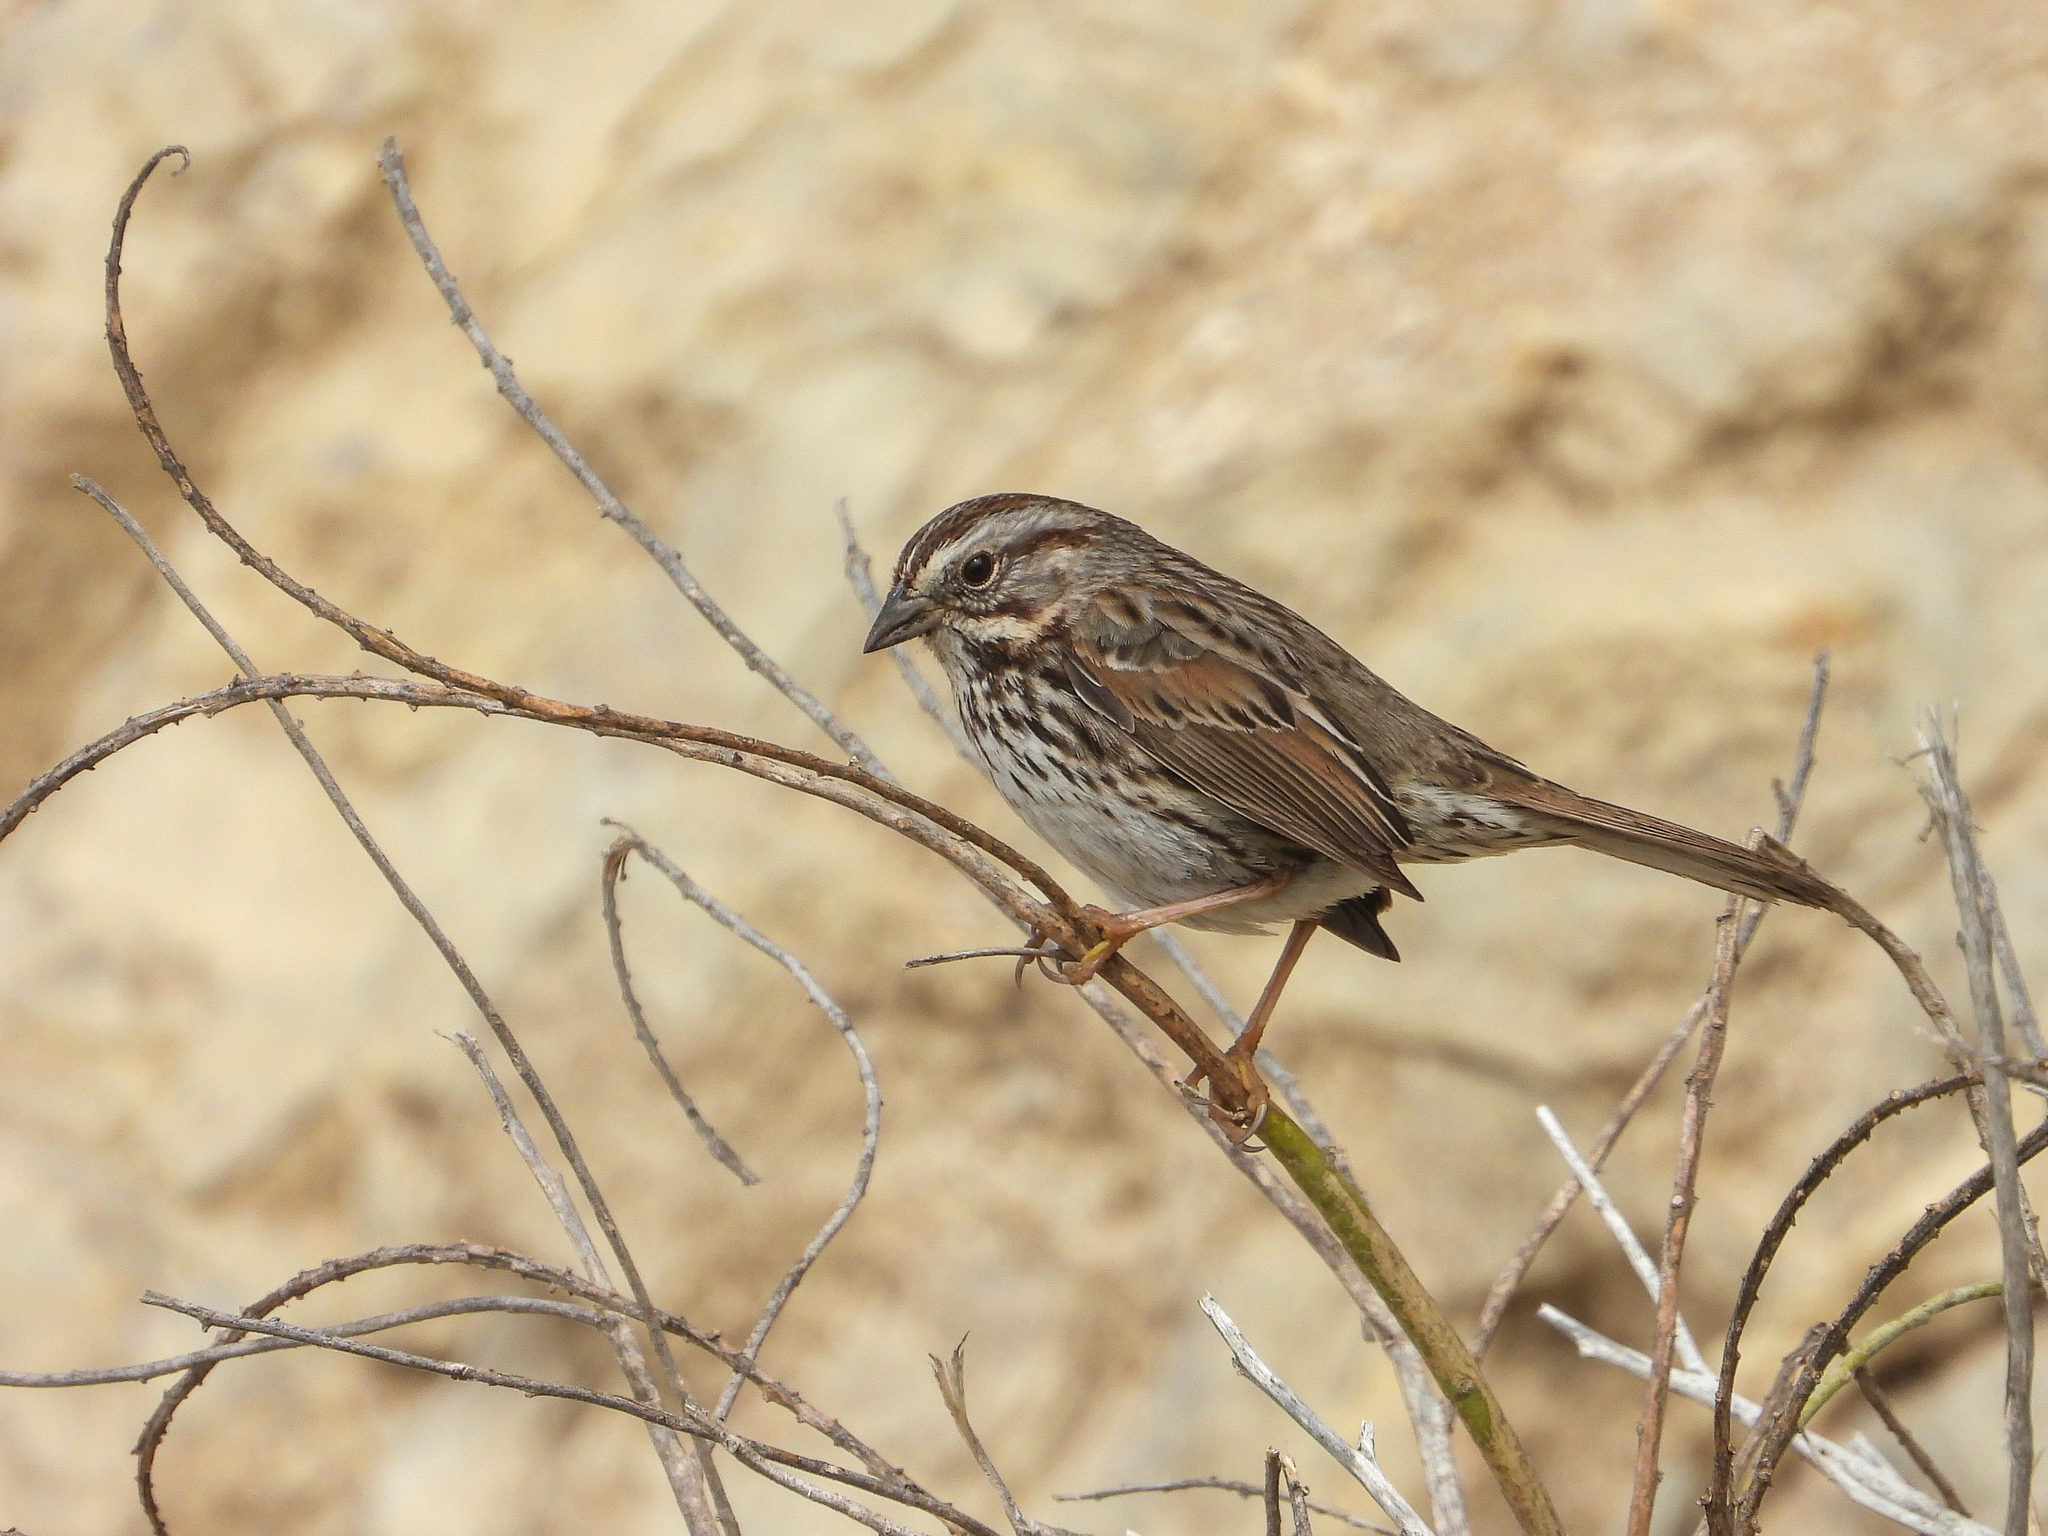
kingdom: Animalia
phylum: Chordata
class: Aves
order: Passeriformes
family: Passerellidae
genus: Melospiza
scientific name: Melospiza melodia
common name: Song sparrow
